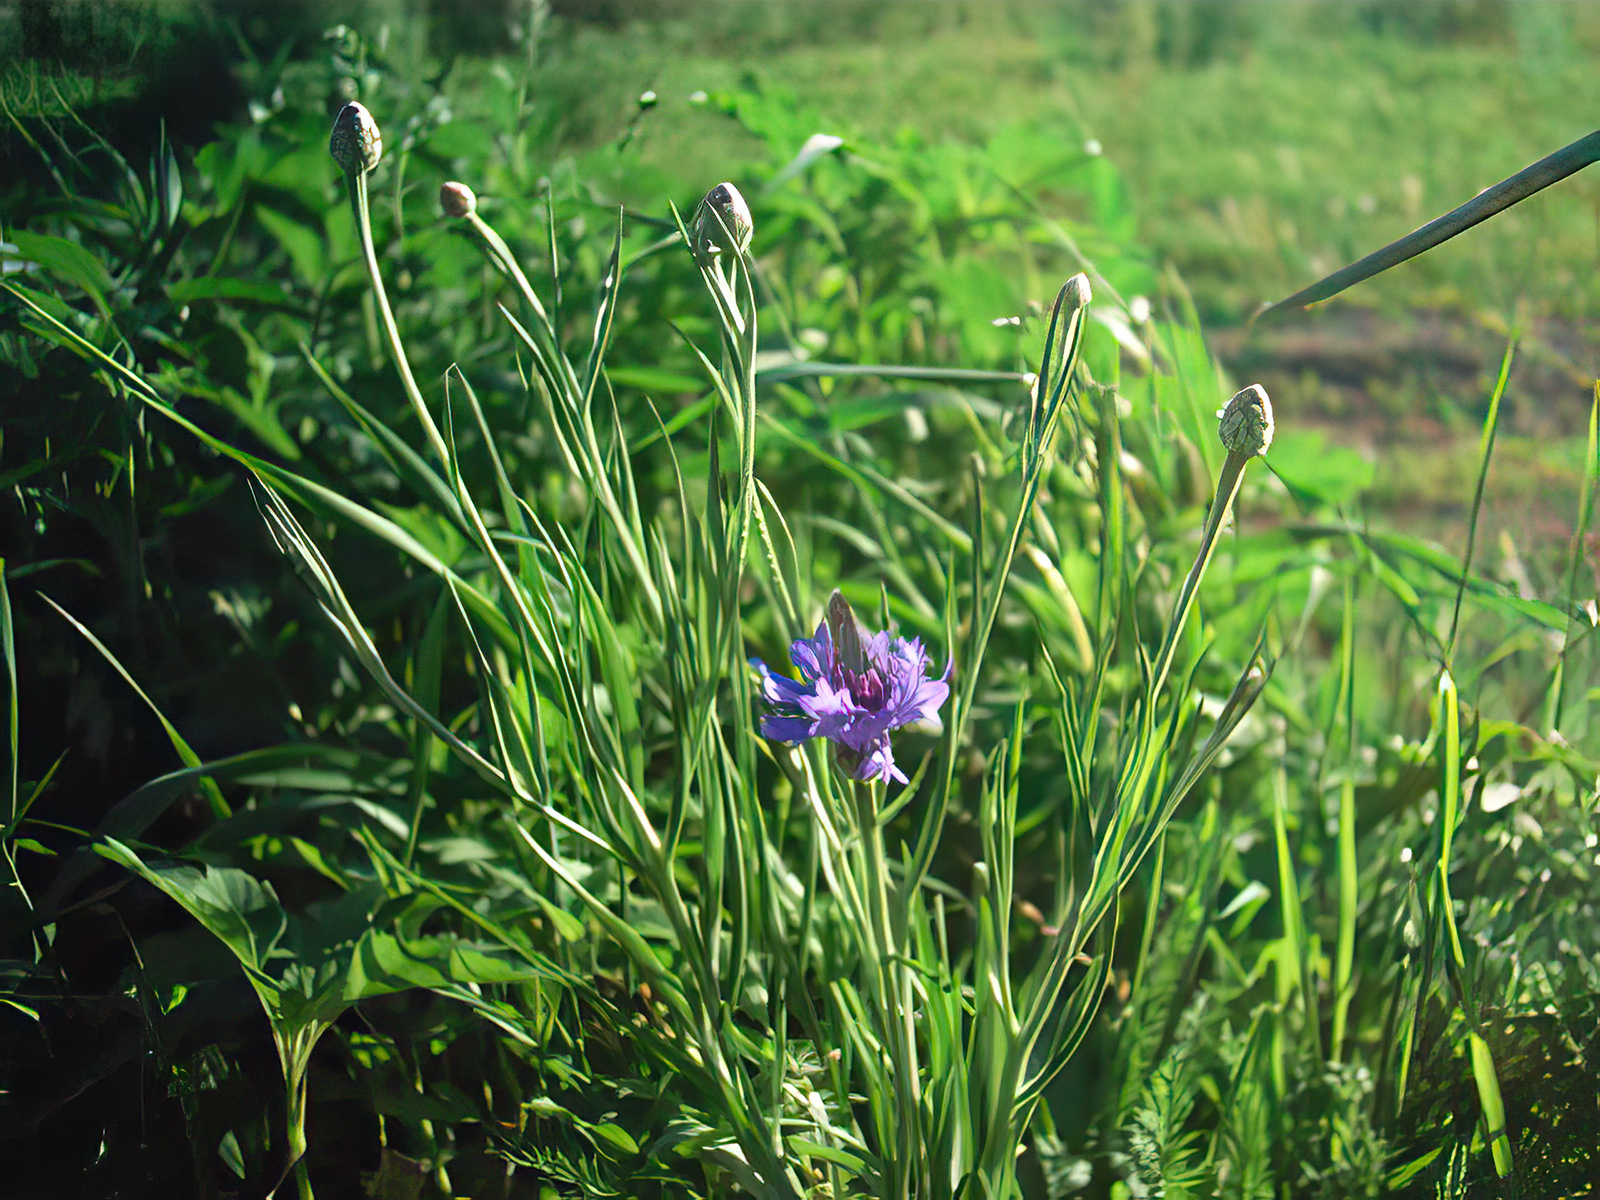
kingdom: Plantae
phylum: Tracheophyta
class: Magnoliopsida
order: Asterales
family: Asteraceae
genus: Centaurea
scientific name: Centaurea cyanus
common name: Cornflower
